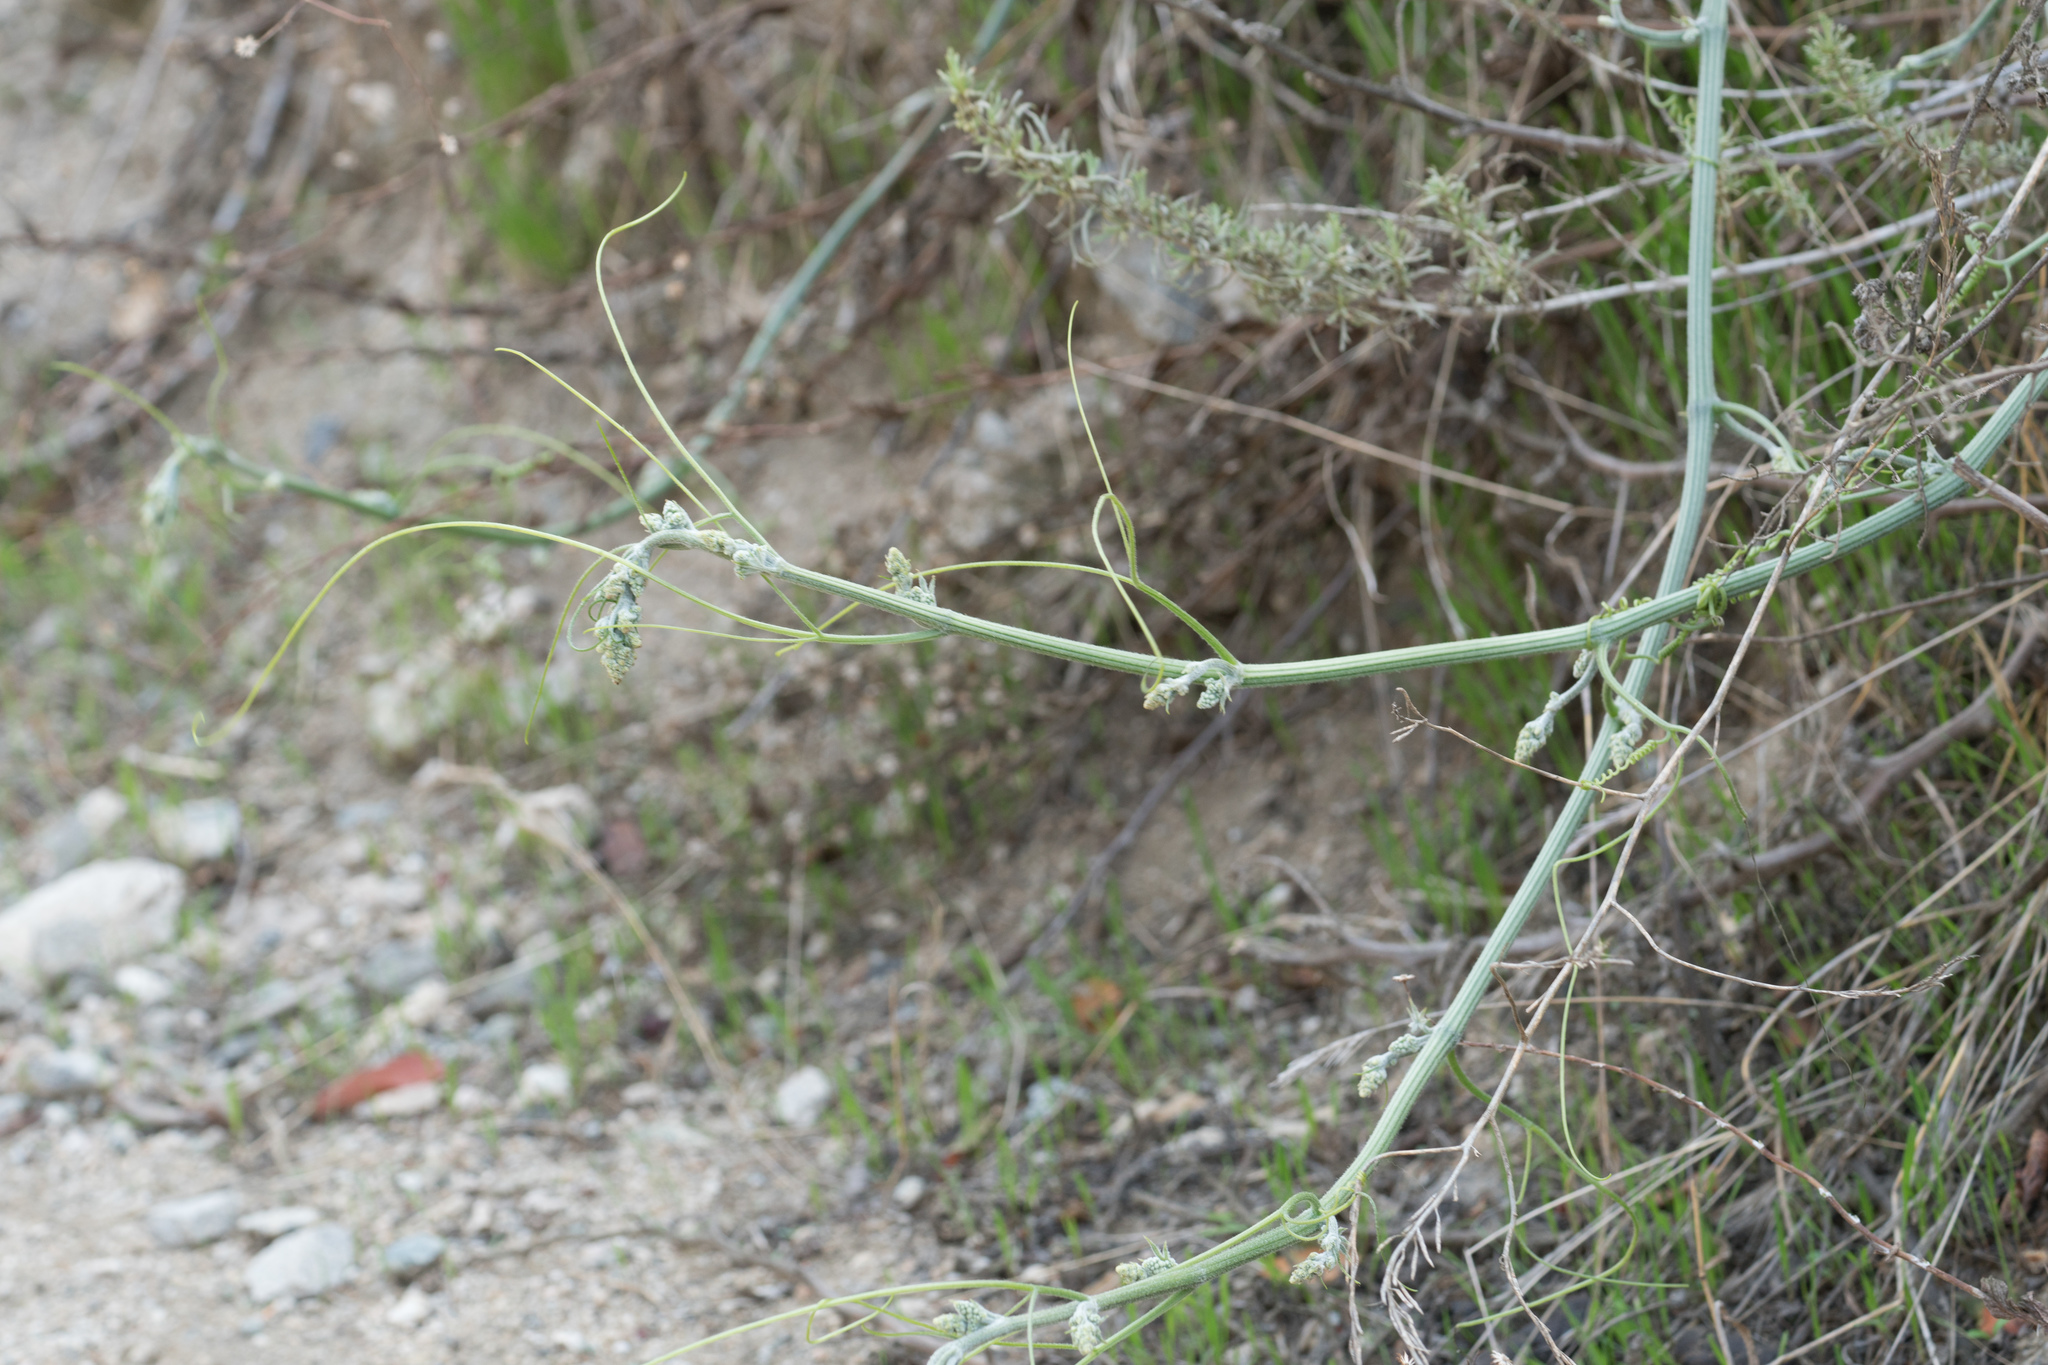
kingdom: Plantae
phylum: Tracheophyta
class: Magnoliopsida
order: Cucurbitales
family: Cucurbitaceae
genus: Marah
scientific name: Marah macrocarpa
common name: Cucamonga manroot
